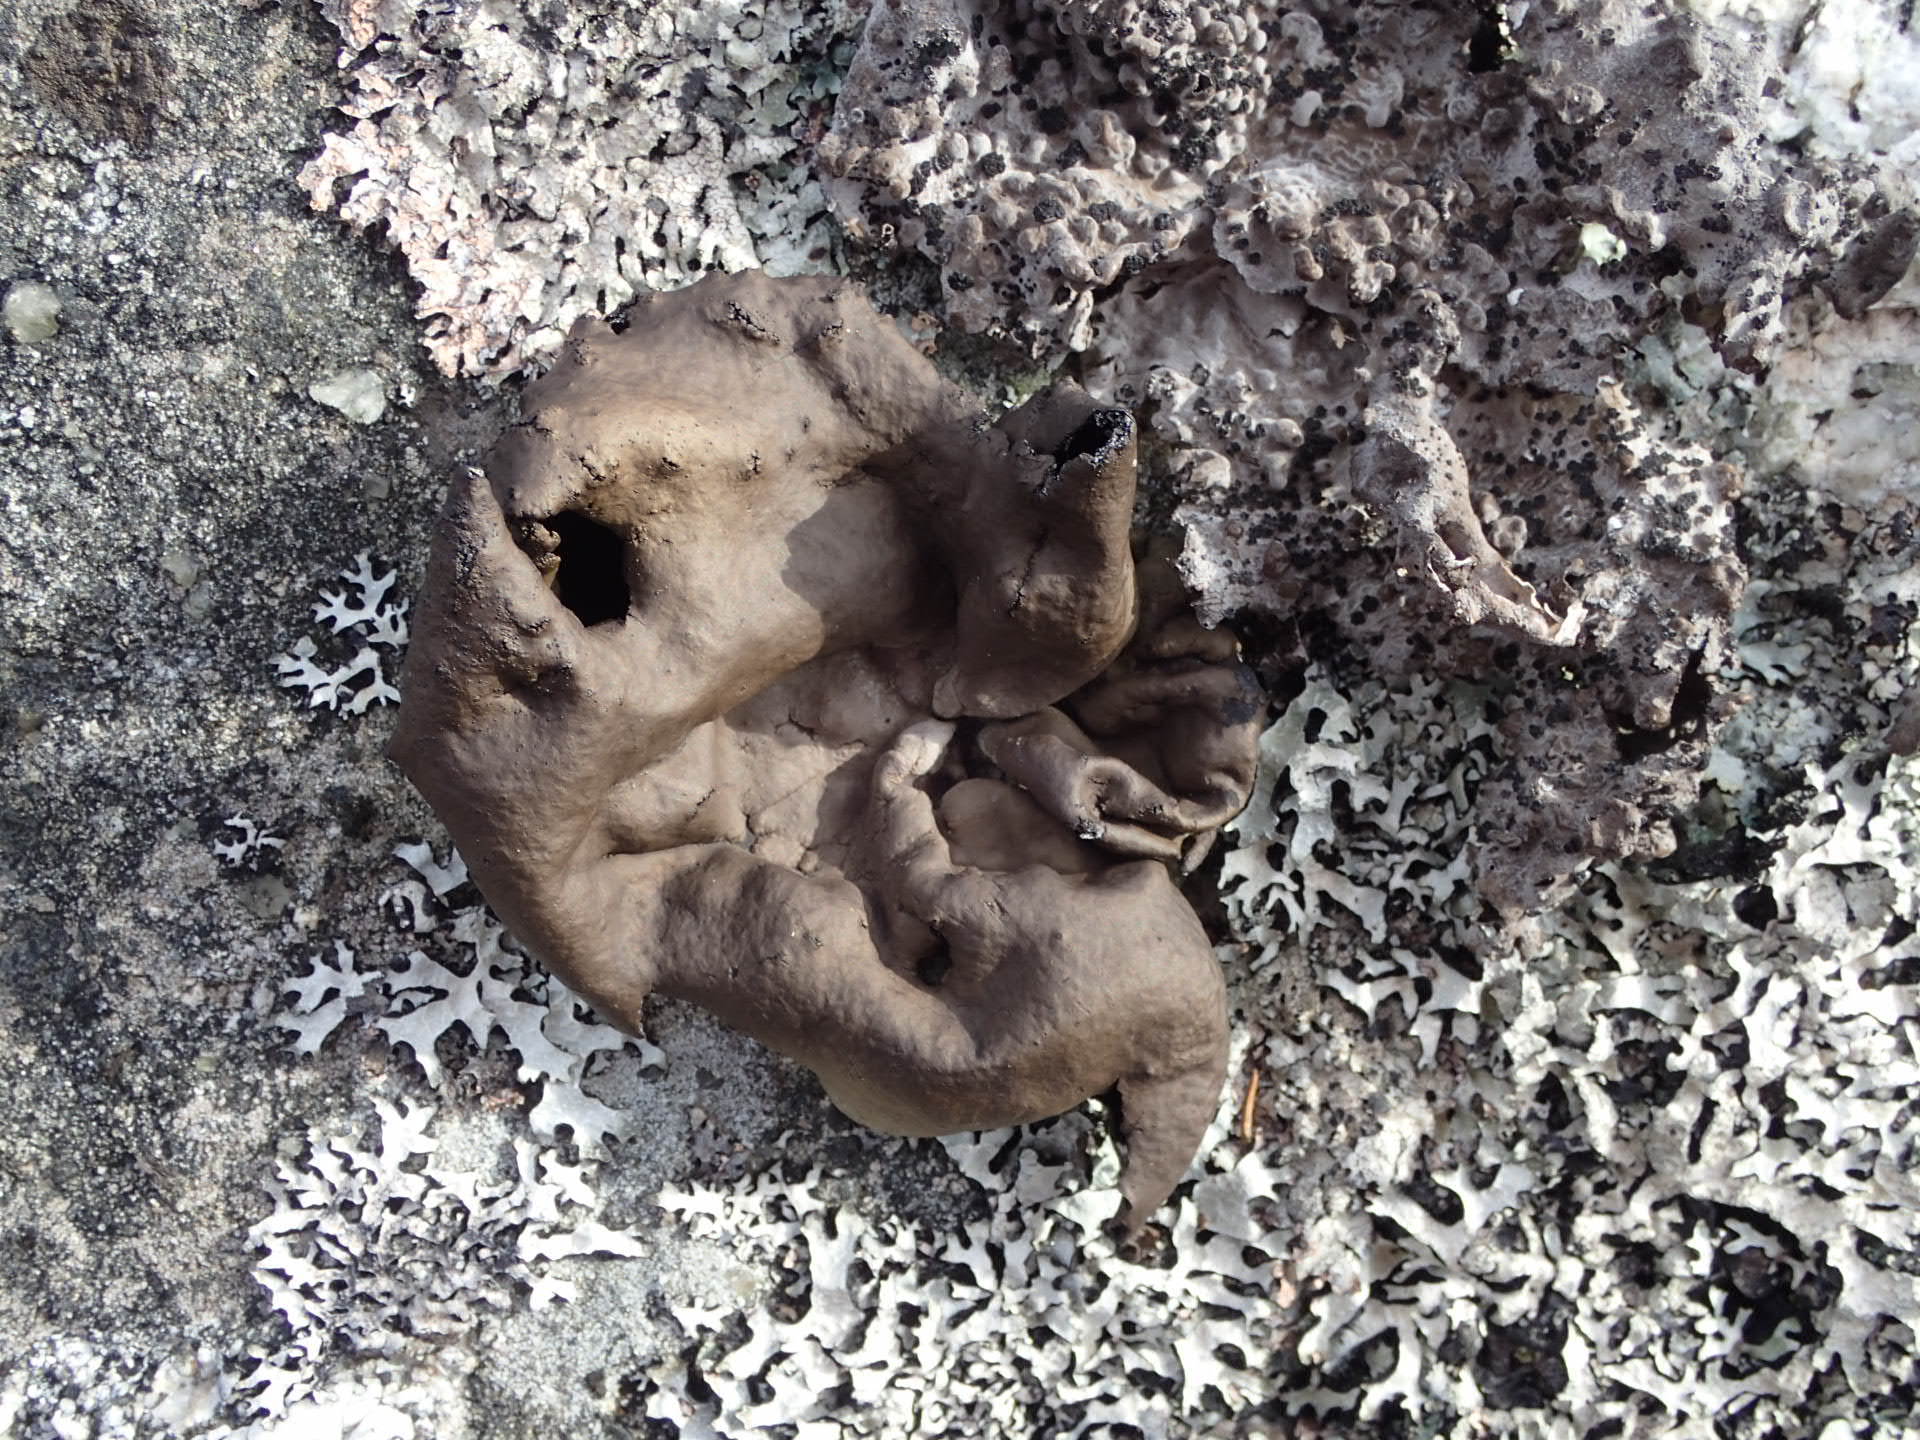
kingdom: Fungi
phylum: Ascomycota
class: Lecanoromycetes
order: Umbilicariales
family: Umbilicariaceae
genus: Umbilicaria
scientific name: Umbilicaria polyphylla
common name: Petalled rocktripe lichen
